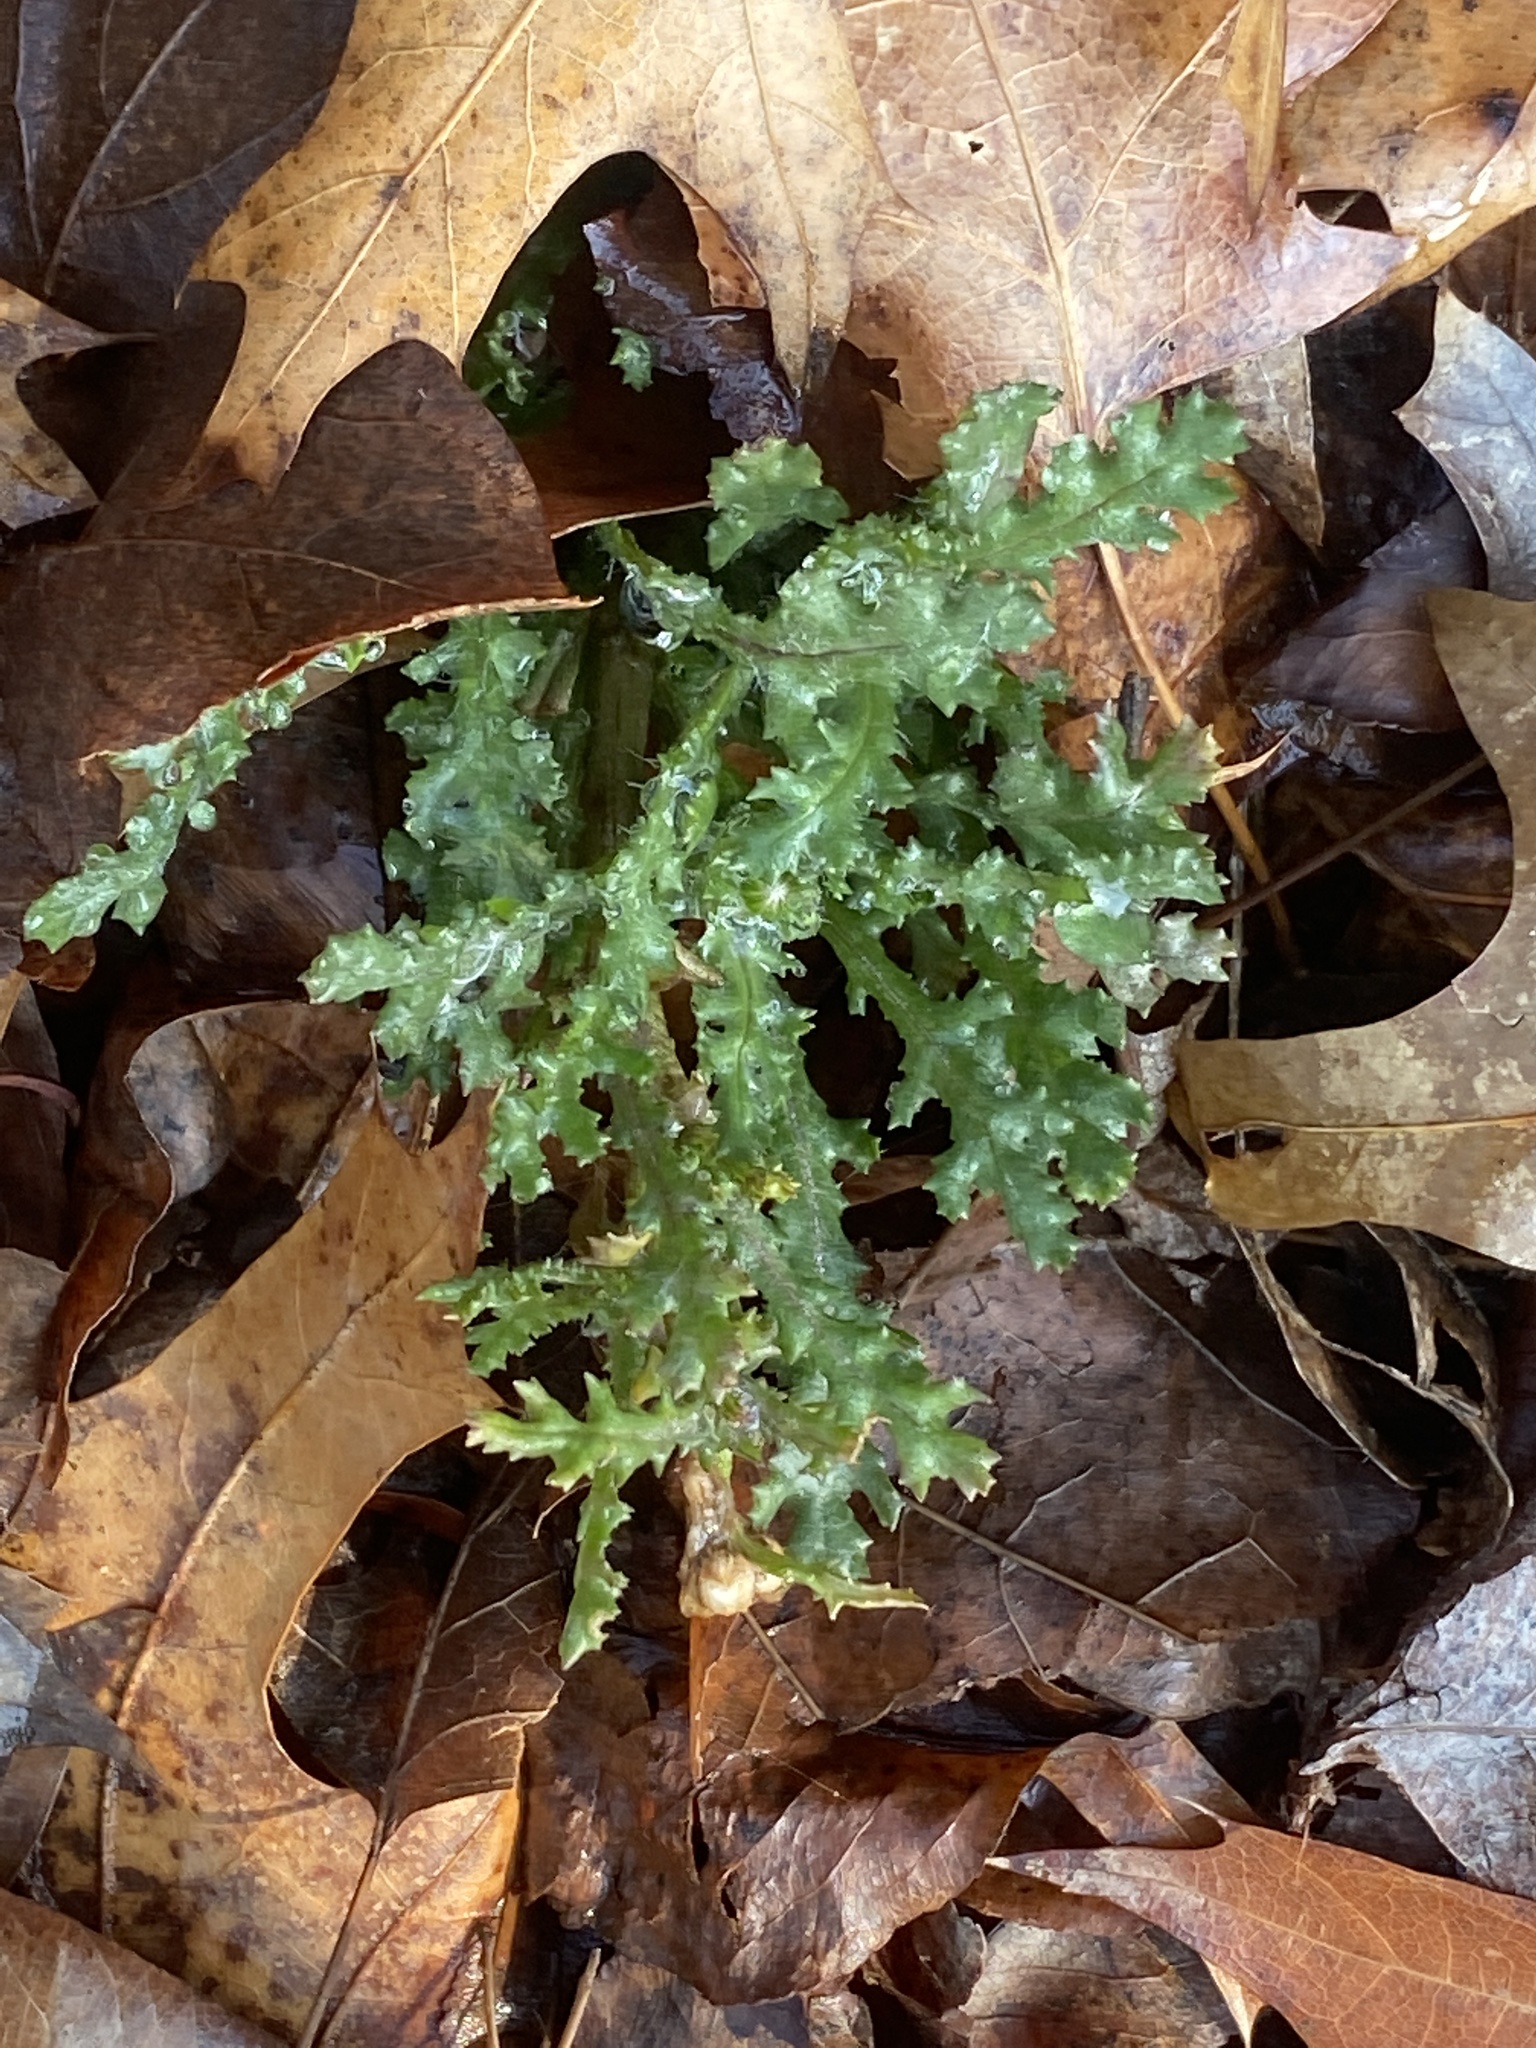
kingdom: Plantae
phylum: Tracheophyta
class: Magnoliopsida
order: Asterales
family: Asteraceae
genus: Senecio
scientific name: Senecio vulgaris
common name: Old-man-in-the-spring
